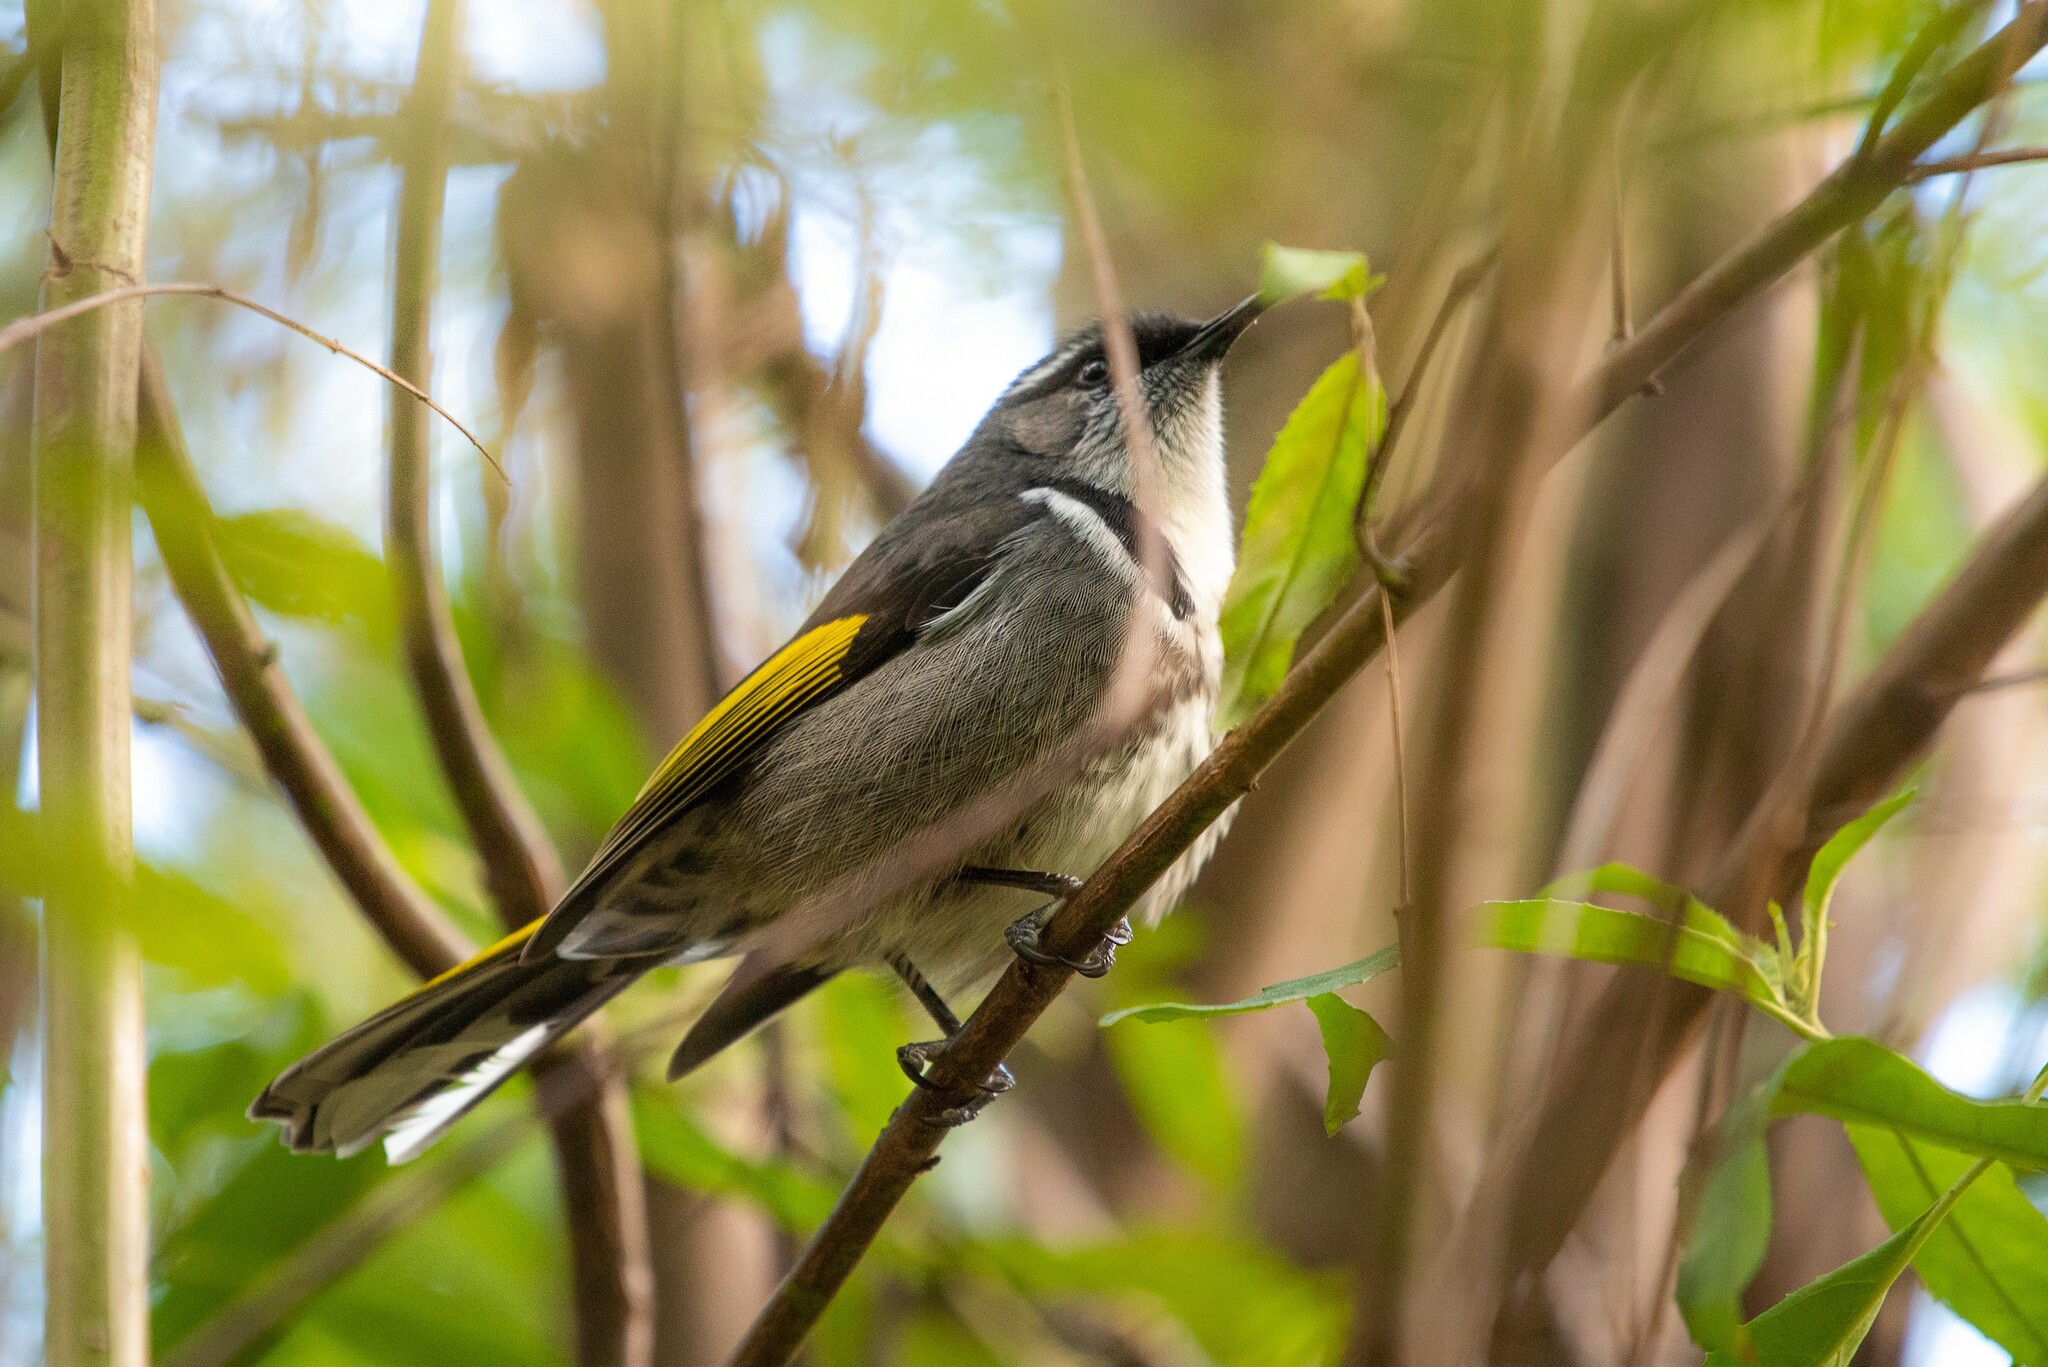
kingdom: Animalia
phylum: Chordata
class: Aves
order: Passeriformes
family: Meliphagidae
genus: Phylidonyris
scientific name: Phylidonyris pyrrhopterus
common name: Crescent honeyeater
